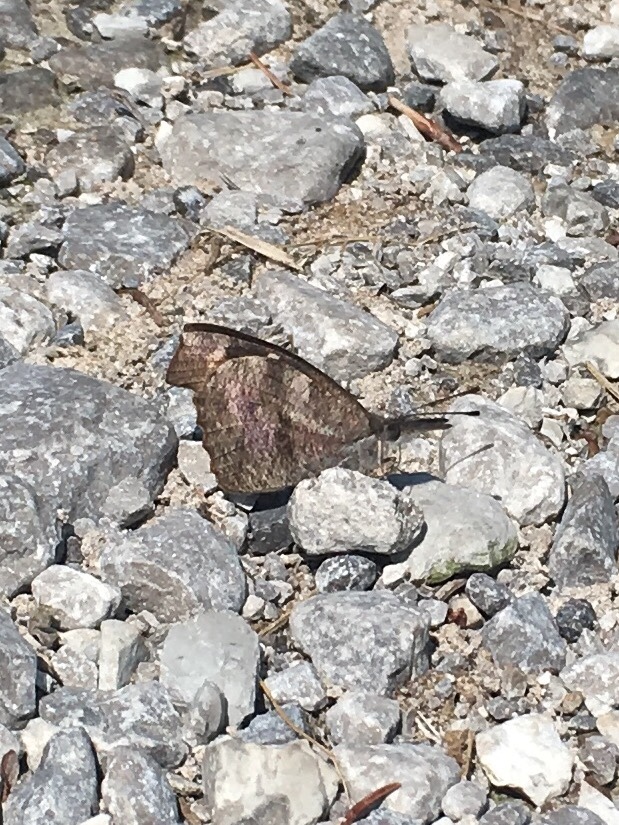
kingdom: Animalia
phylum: Arthropoda
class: Insecta
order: Lepidoptera
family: Nymphalidae
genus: Libytheana
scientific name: Libytheana carinenta
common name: American snout
